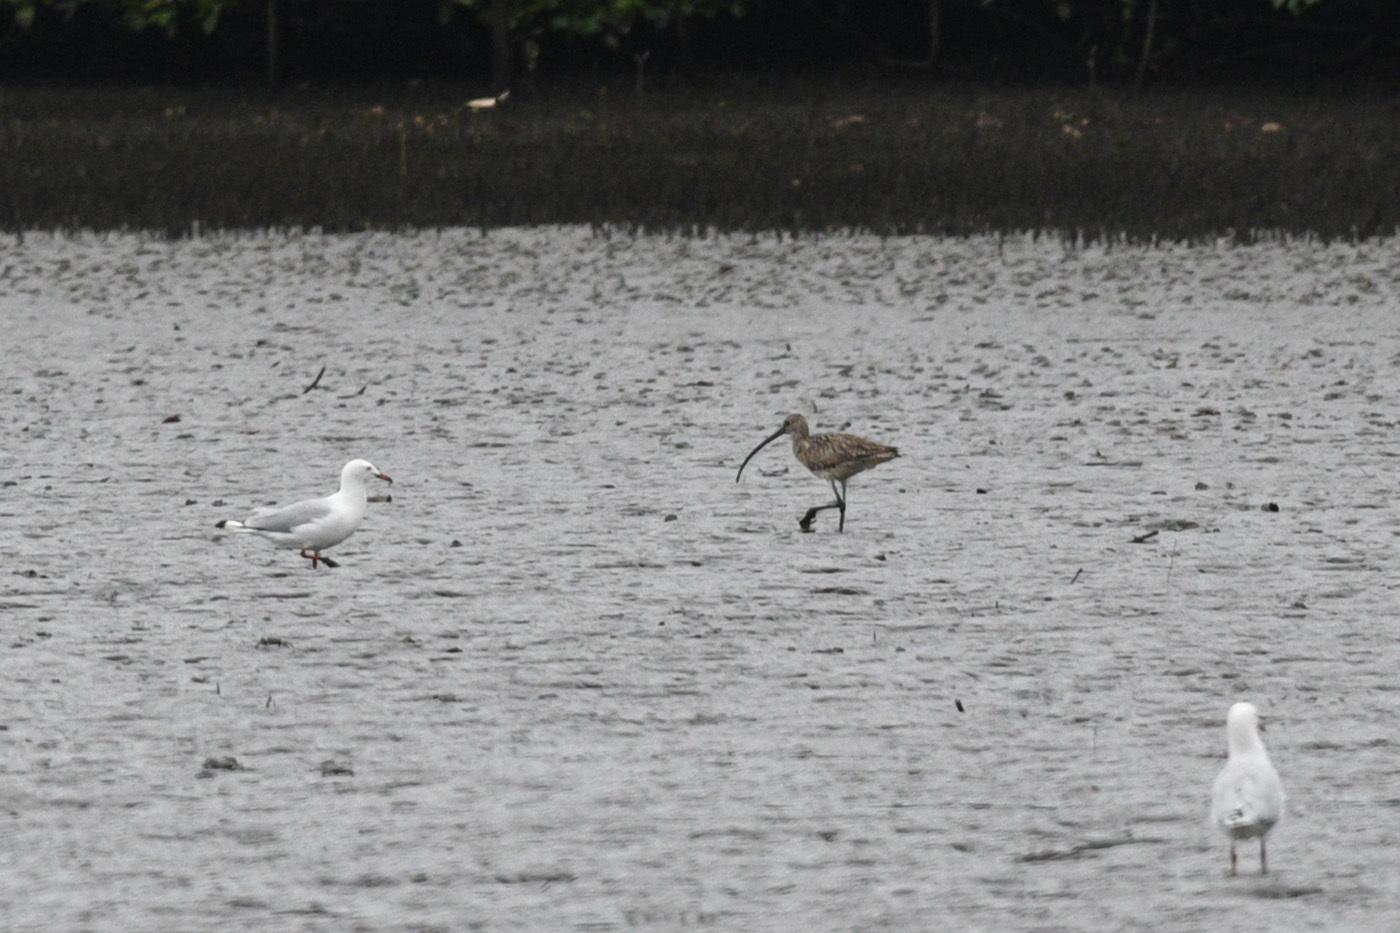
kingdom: Animalia
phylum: Chordata
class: Aves
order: Charadriiformes
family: Scolopacidae
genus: Numenius
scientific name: Numenius madagascariensis
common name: Far eastern curlew
